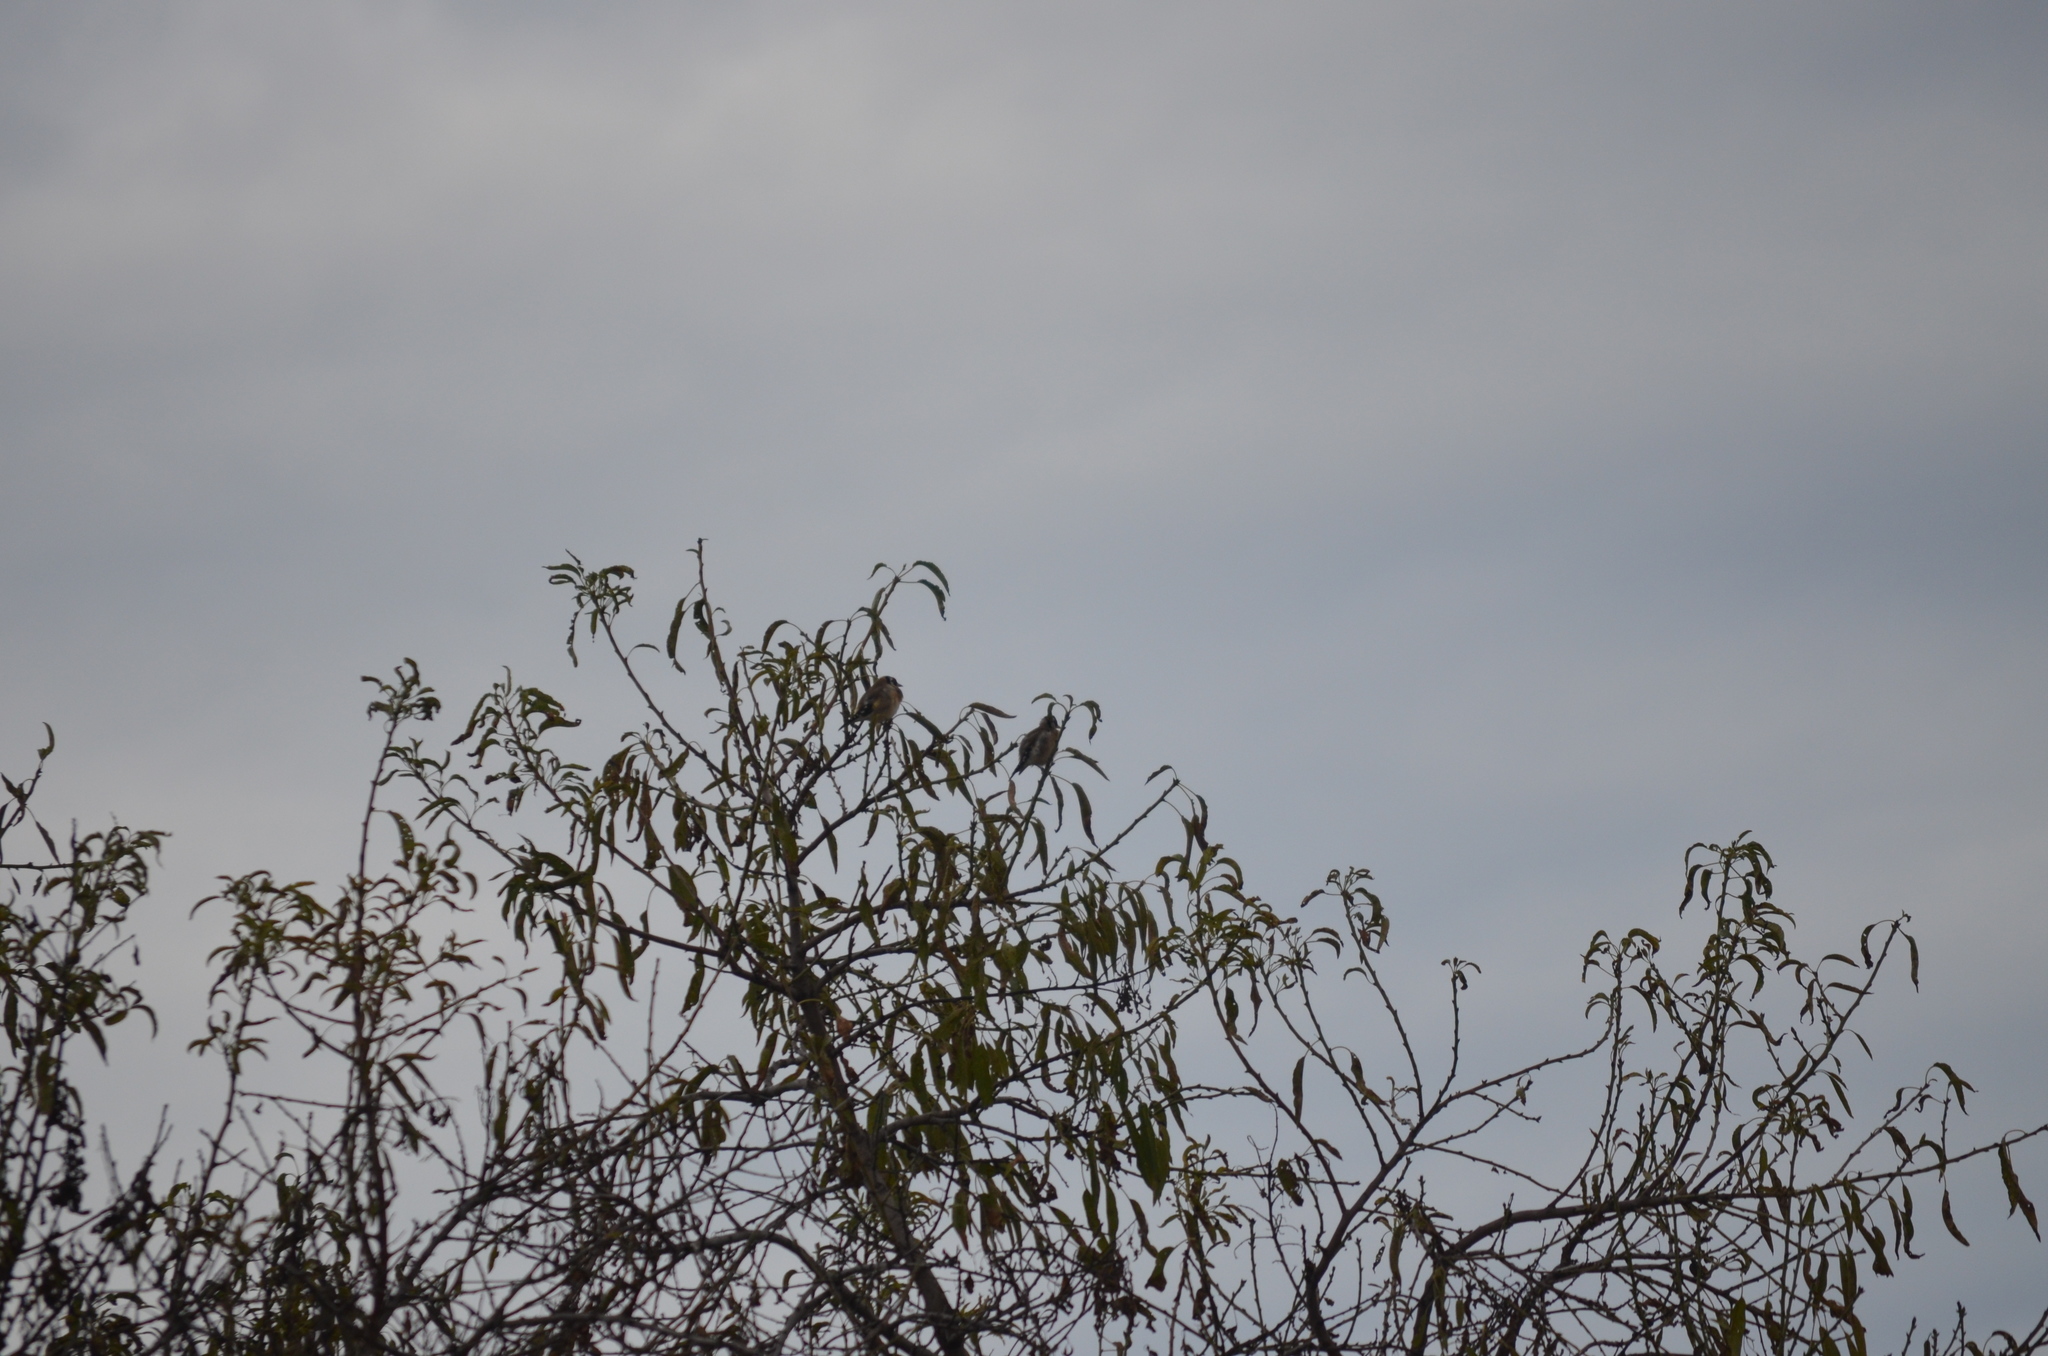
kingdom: Animalia
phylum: Chordata
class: Aves
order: Passeriformes
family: Fringillidae
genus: Carduelis
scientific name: Carduelis carduelis
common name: European goldfinch
